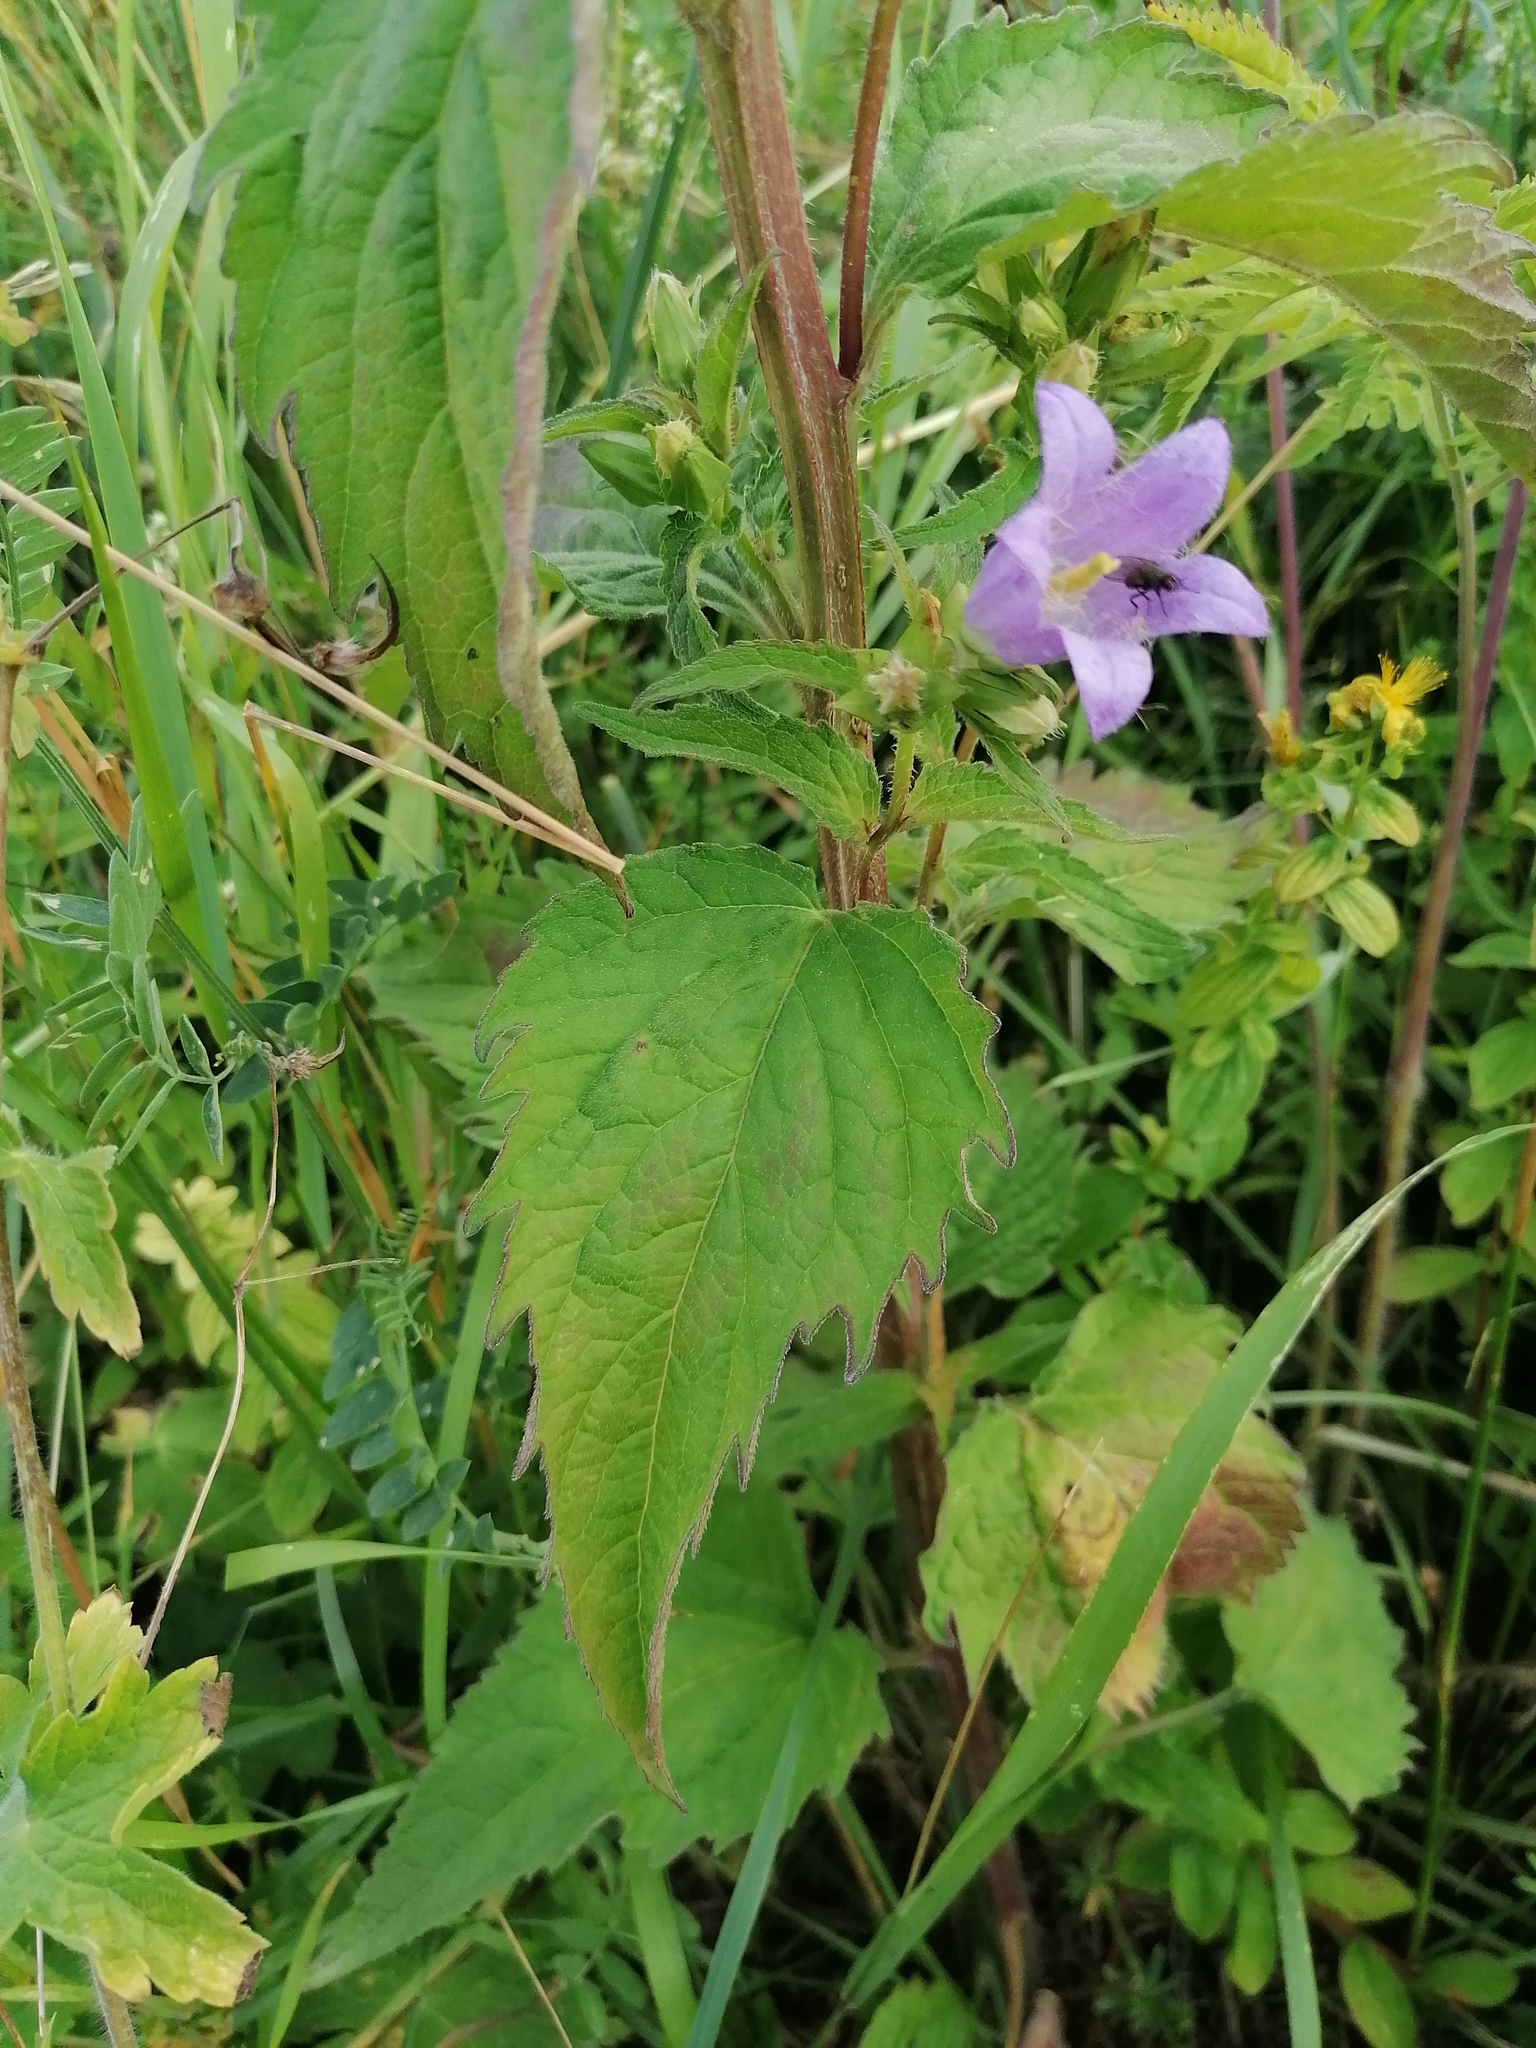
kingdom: Plantae
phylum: Tracheophyta
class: Magnoliopsida
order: Asterales
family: Campanulaceae
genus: Campanula
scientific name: Campanula trachelium
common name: Nettle-leaved bellflower
